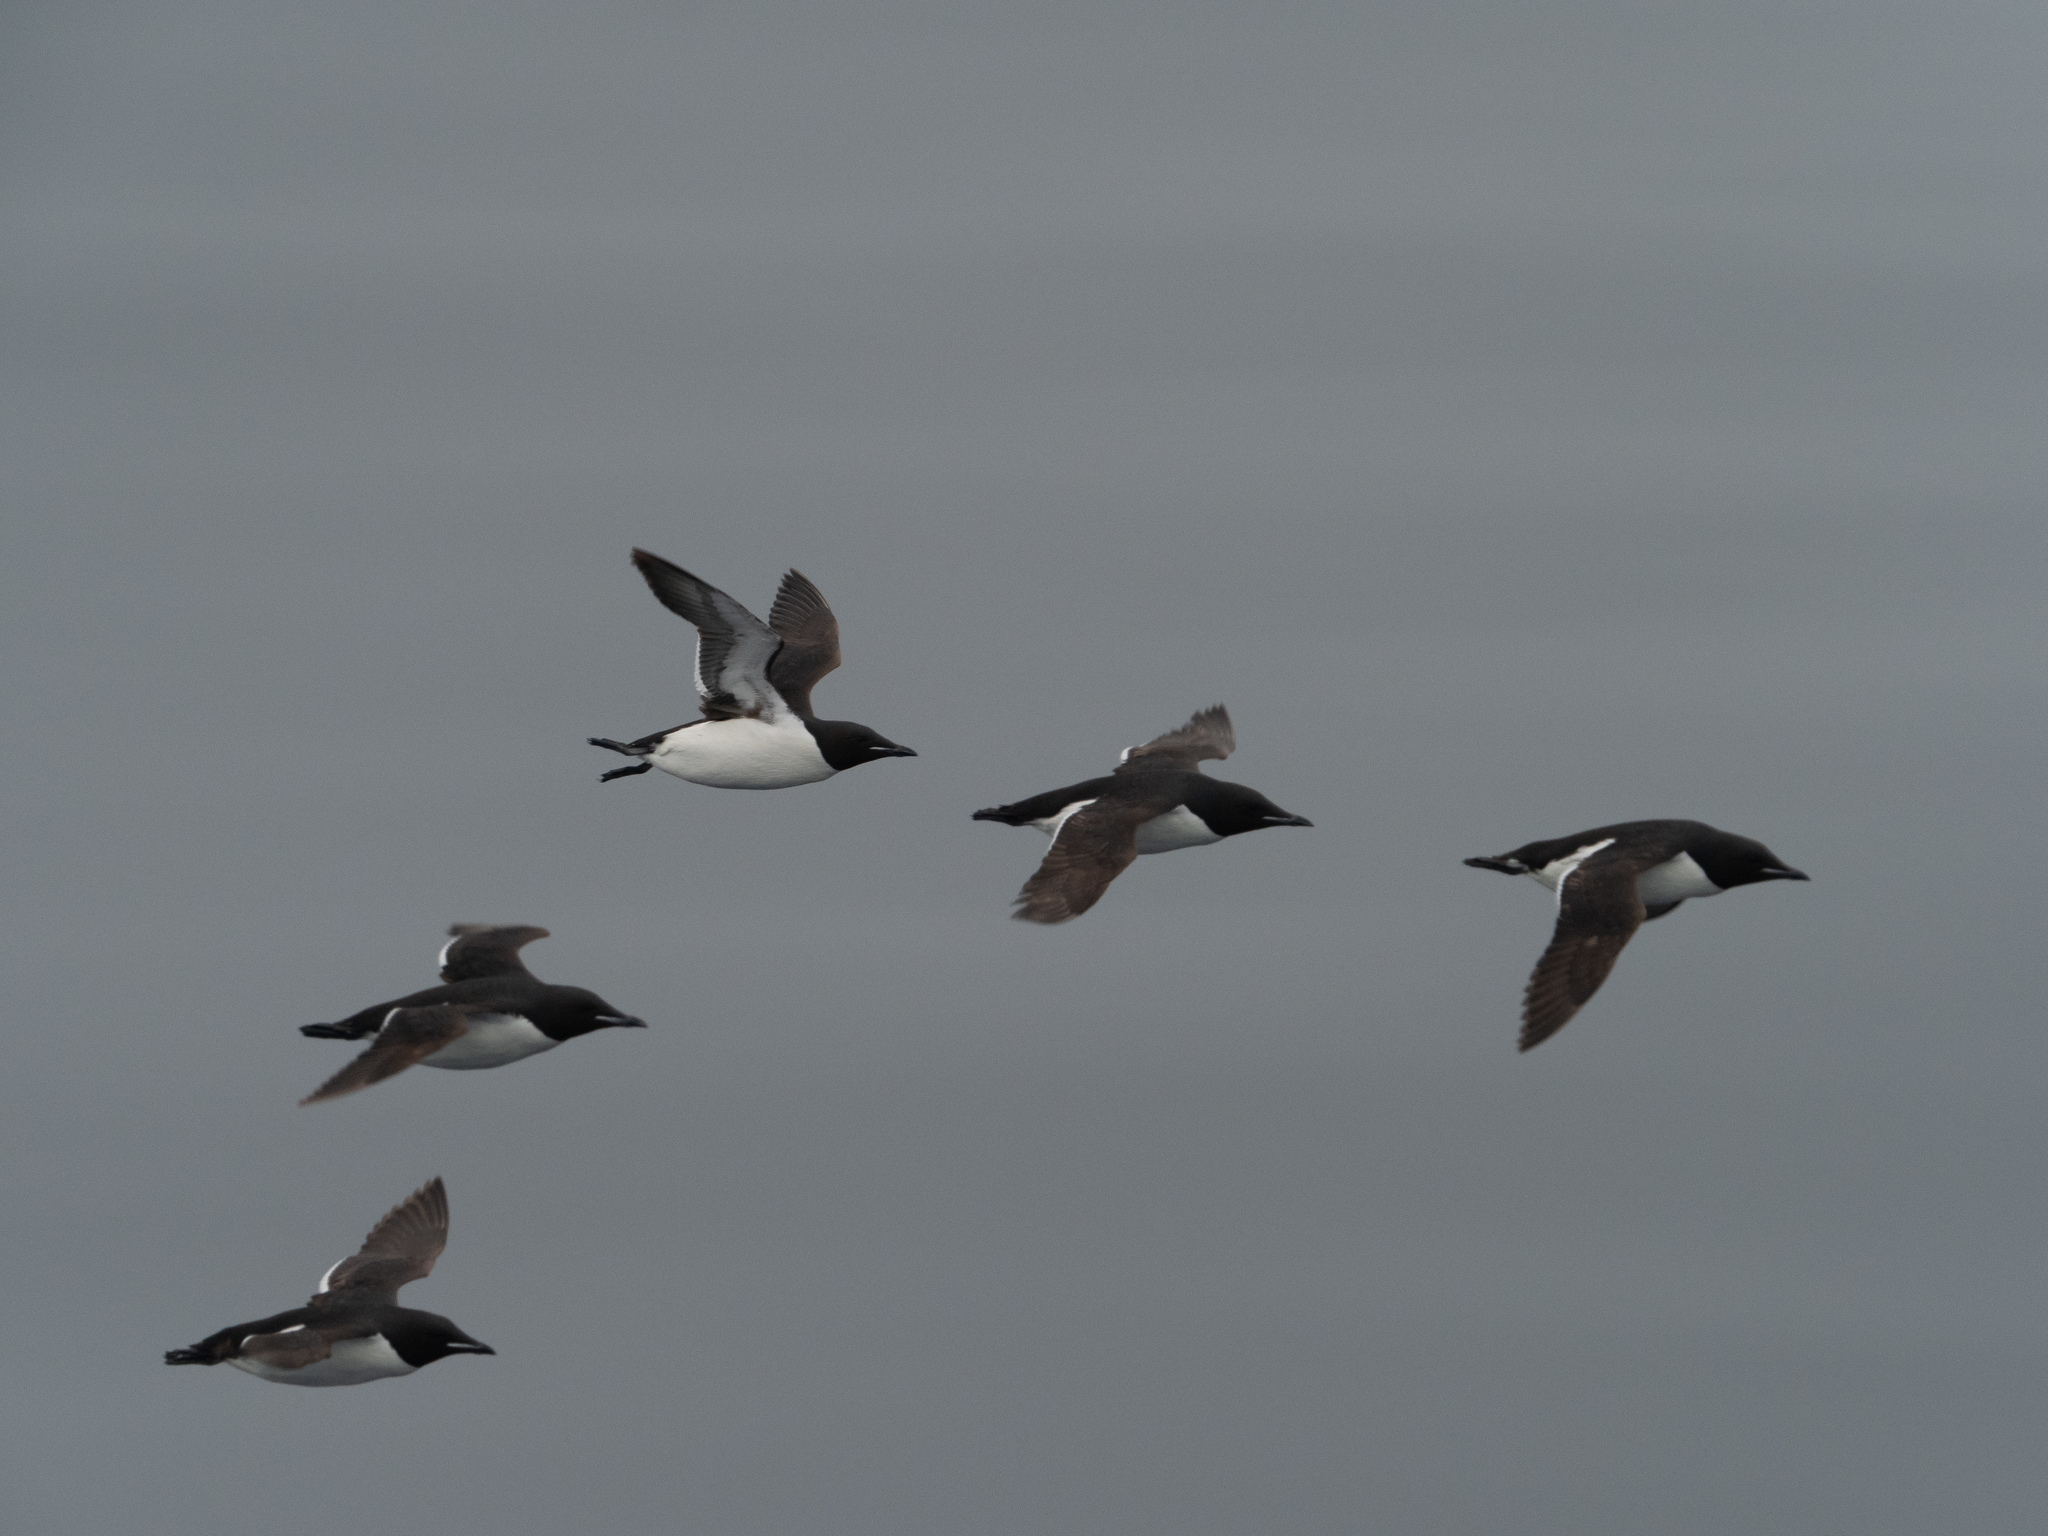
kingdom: Animalia
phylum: Chordata
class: Aves
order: Charadriiformes
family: Alcidae
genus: Uria
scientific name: Uria lomvia
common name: Thick-billed murre
